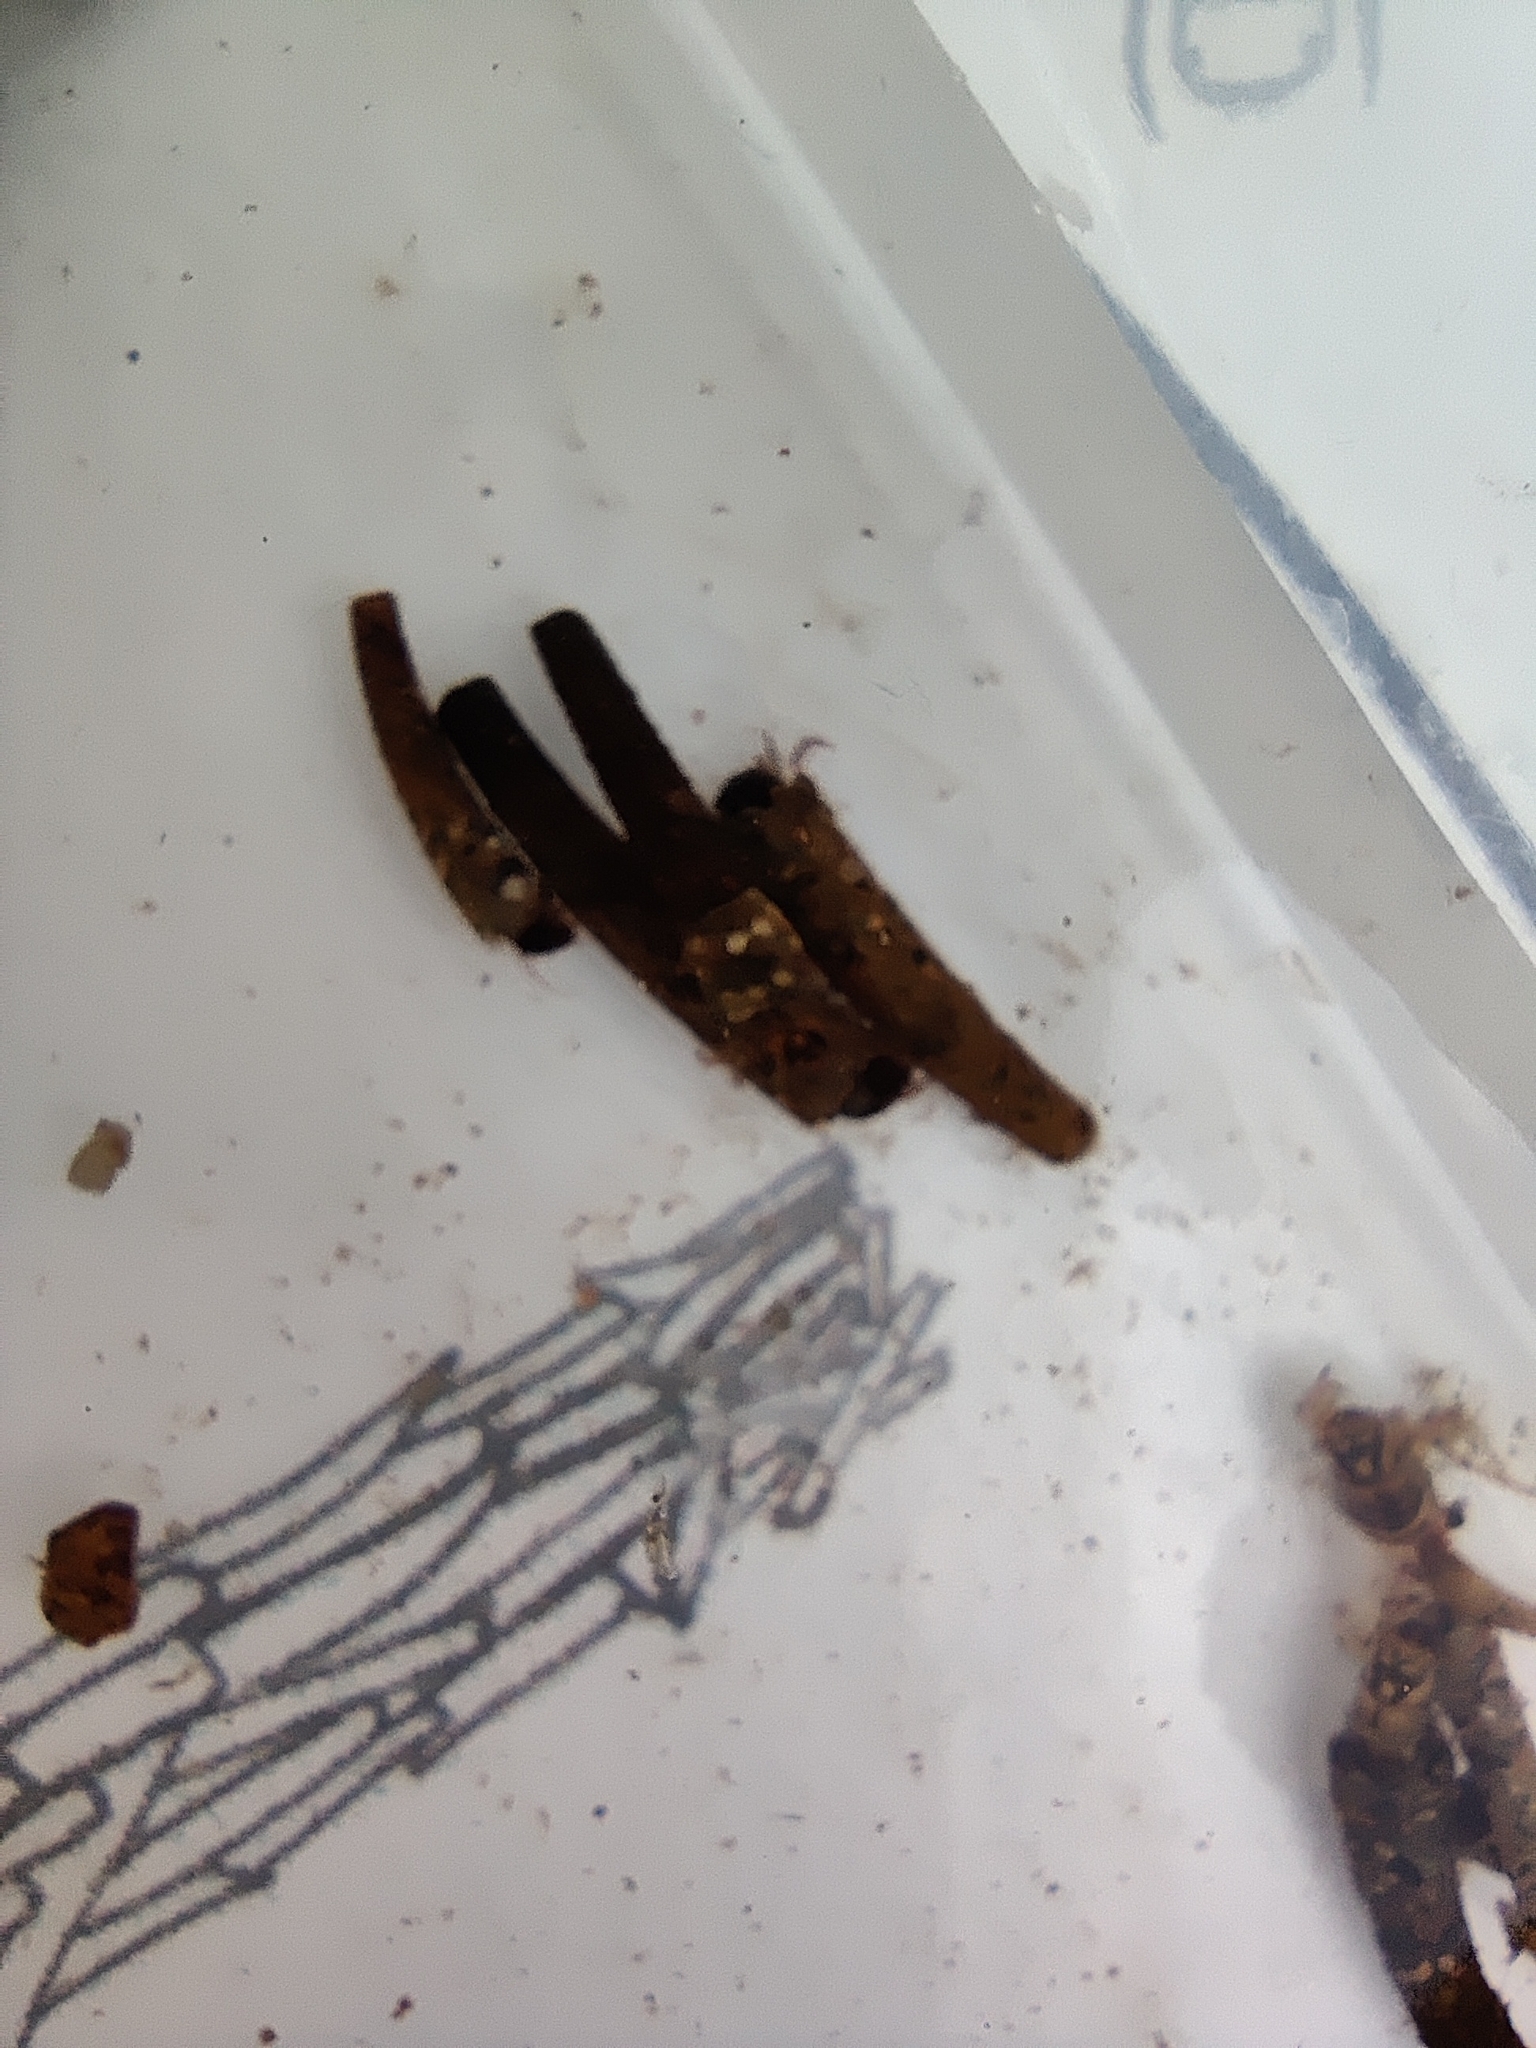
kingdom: Animalia
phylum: Arthropoda
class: Insecta
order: Trichoptera
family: Sericostomatidae
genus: Sericostoma
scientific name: Sericostoma personatum
